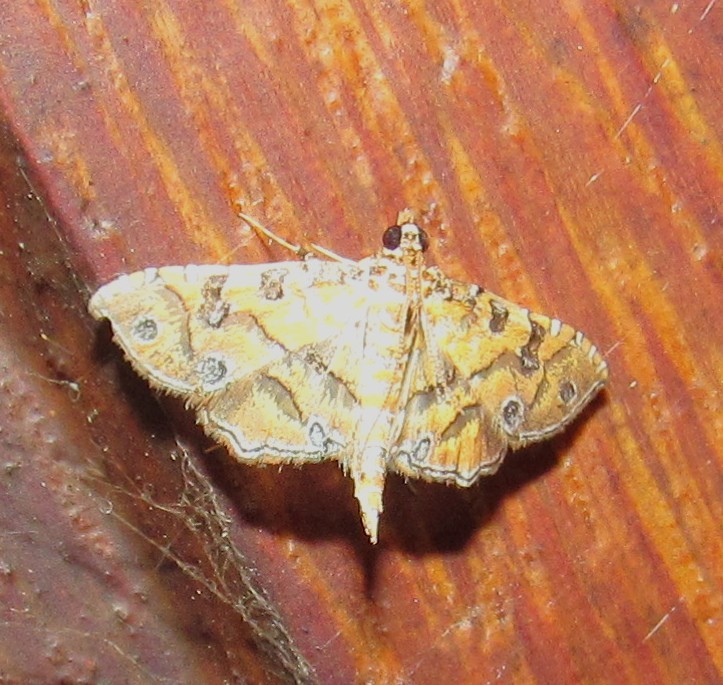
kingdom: Animalia
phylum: Arthropoda
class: Insecta
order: Lepidoptera
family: Crambidae
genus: Ommatospila
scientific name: Ommatospila narcaeusalis
